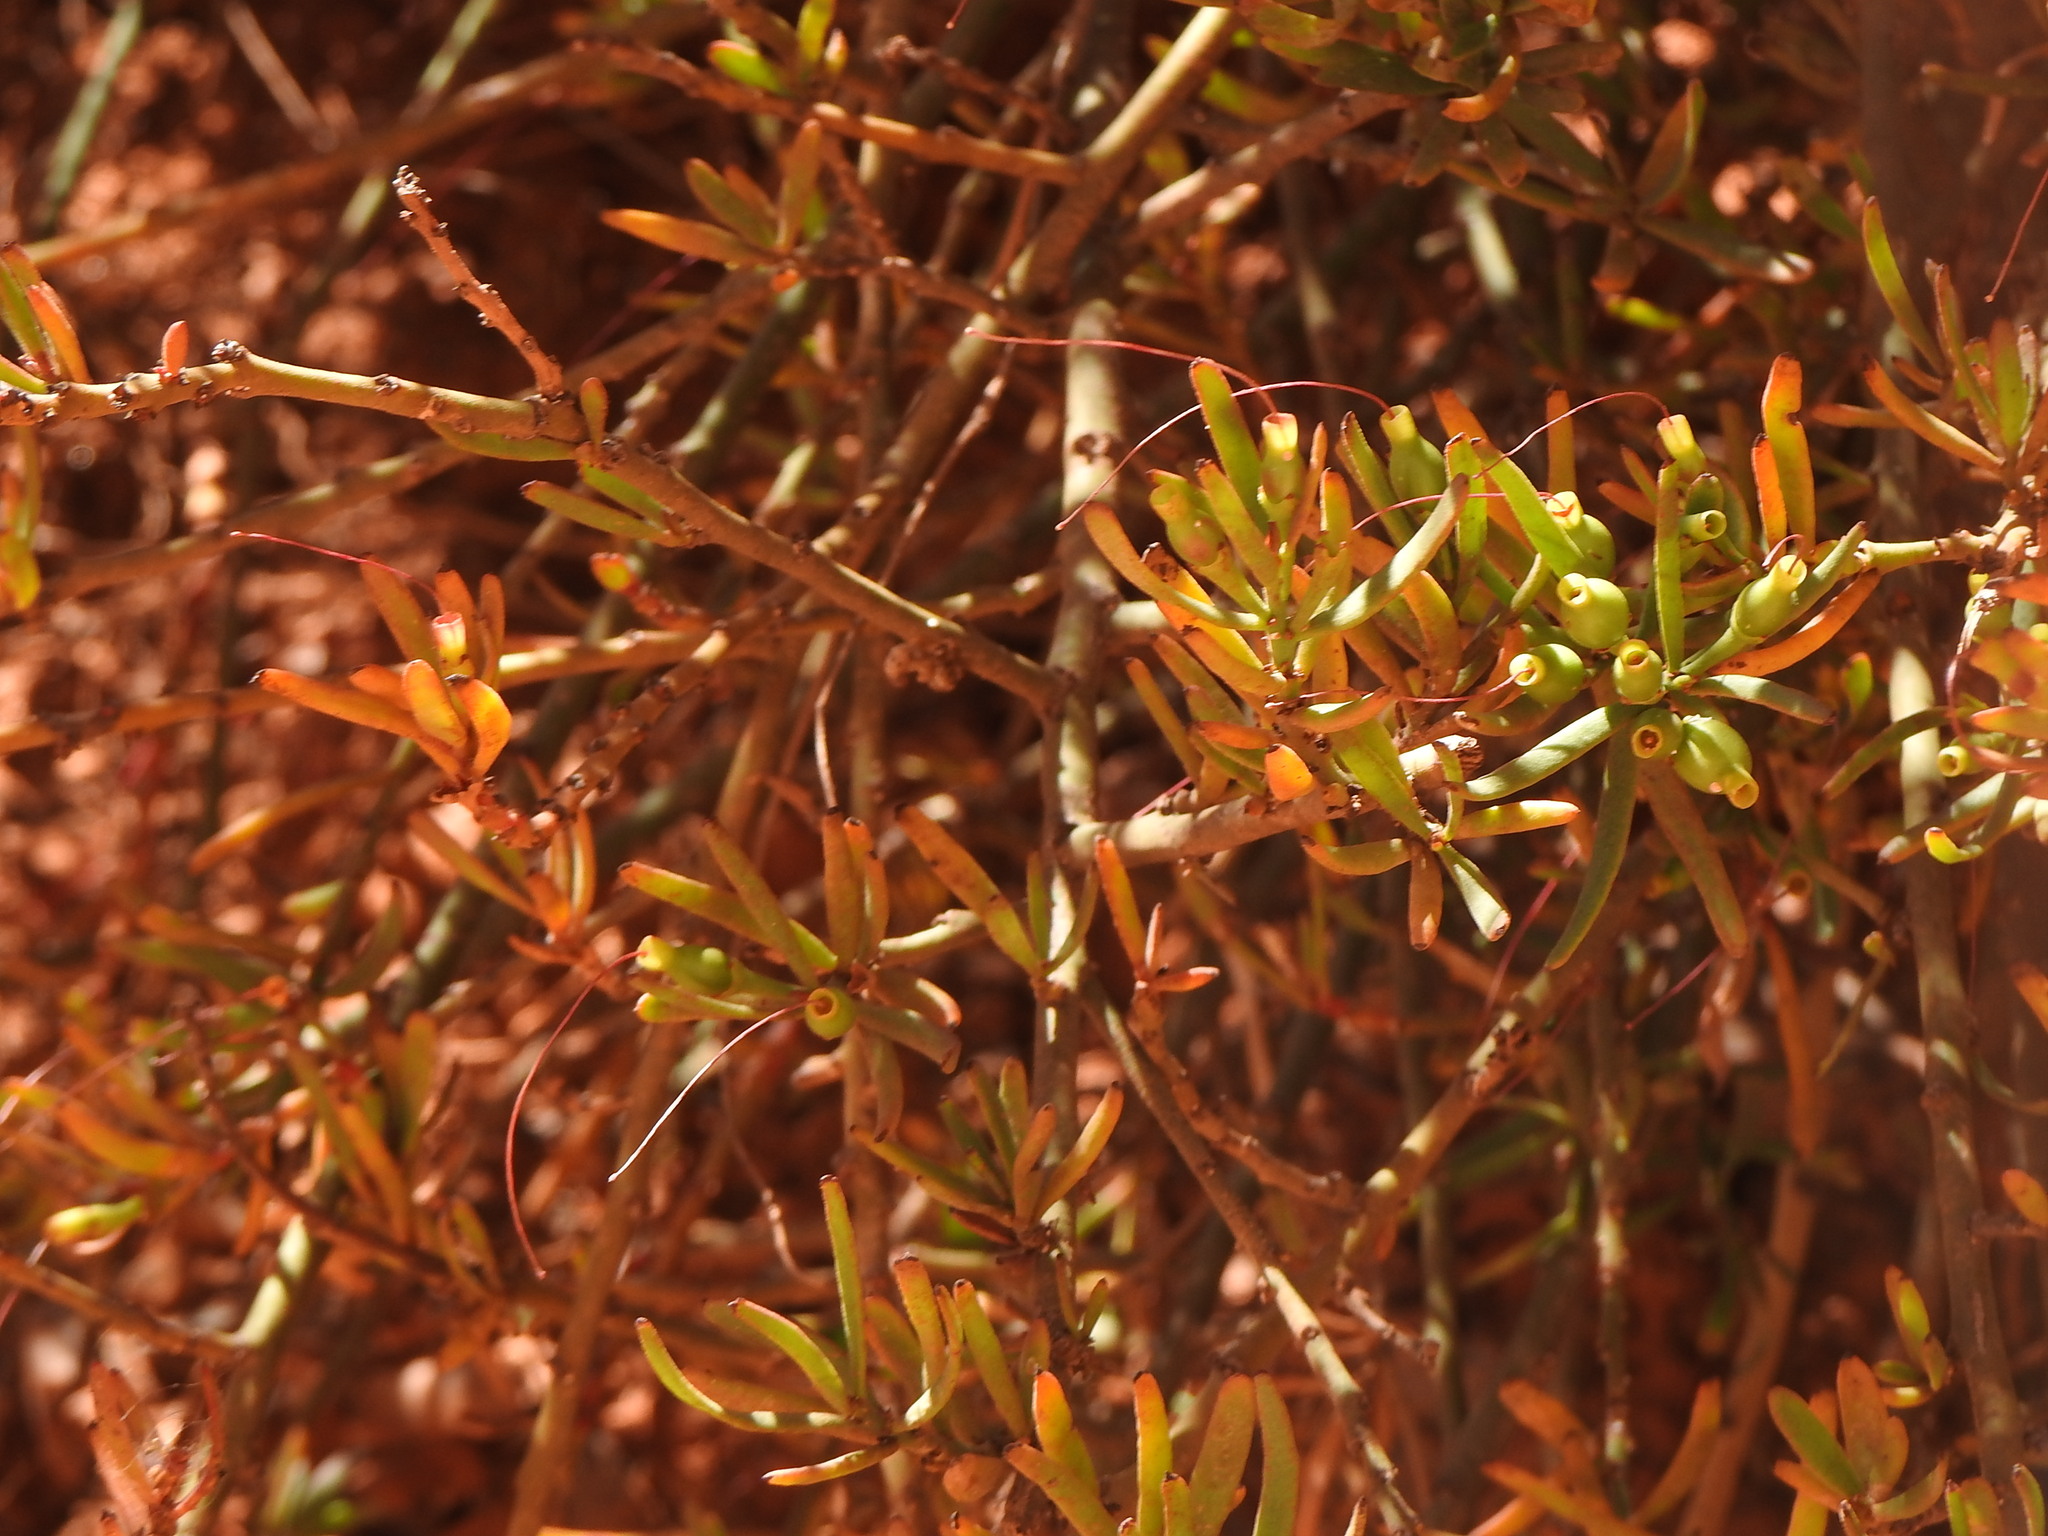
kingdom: Plantae
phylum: Tracheophyta
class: Magnoliopsida
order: Santalales
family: Loranthaceae
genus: Ligaria
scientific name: Ligaria cuneifolia
